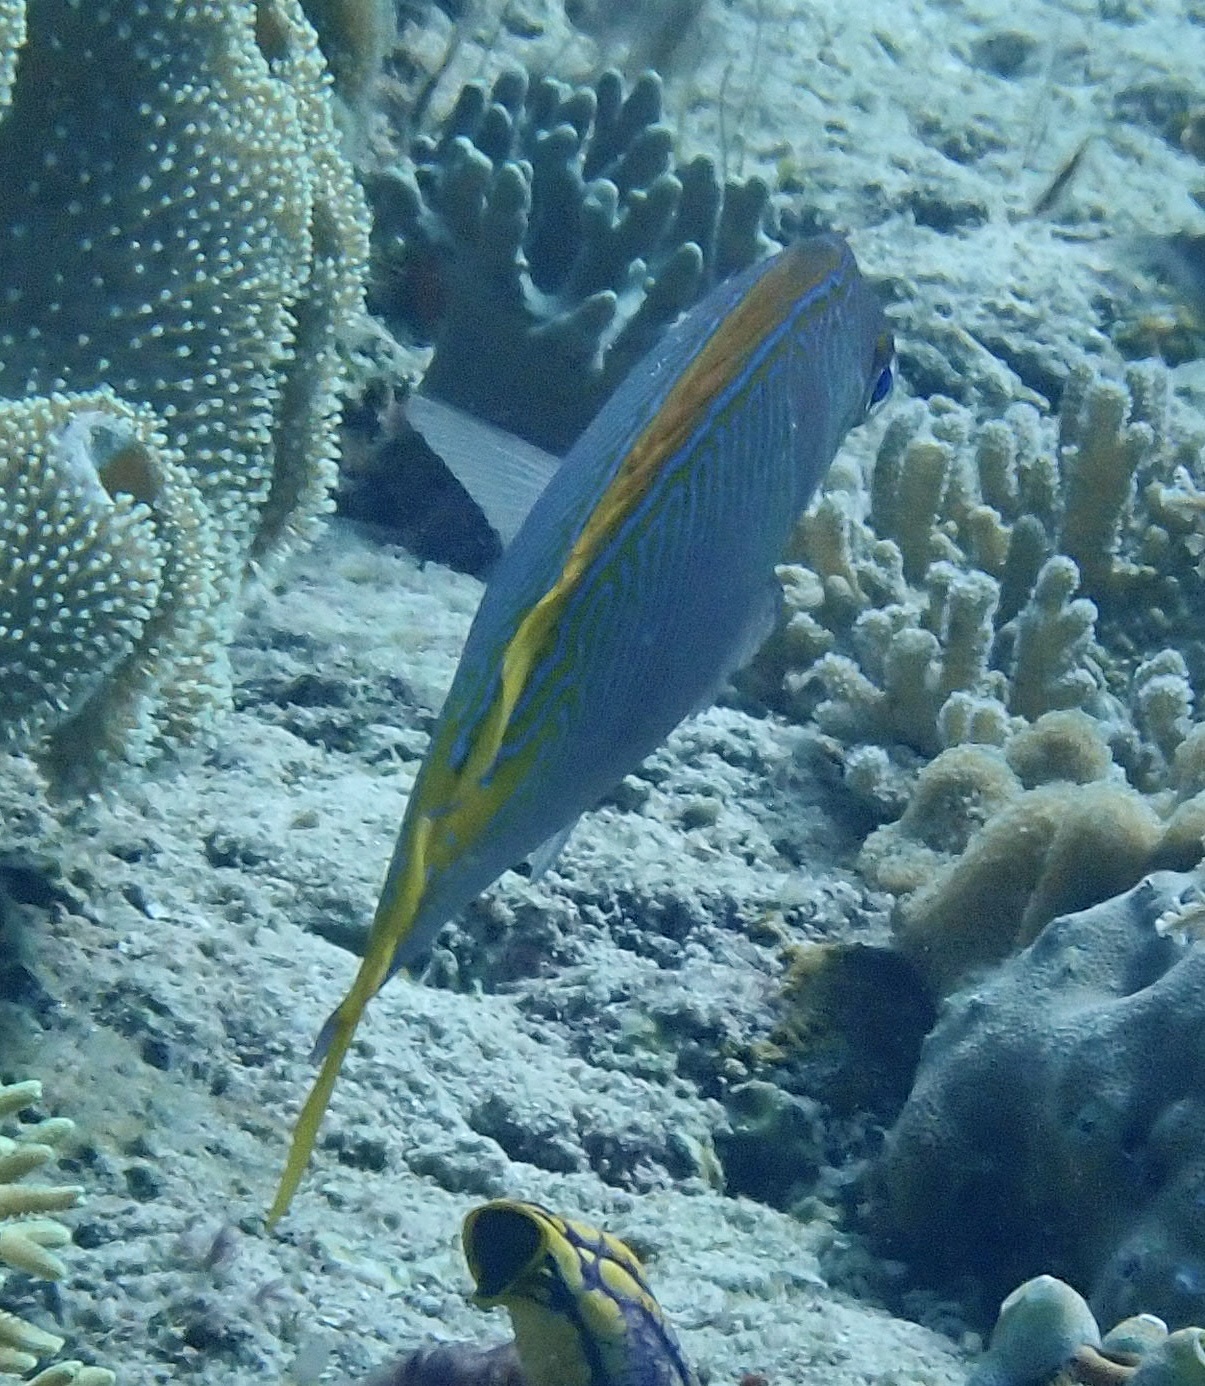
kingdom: Animalia
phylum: Chordata
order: Perciformes
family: Siganidae
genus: Siganus
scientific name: Siganus doliatus
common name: Barred spinefoot
